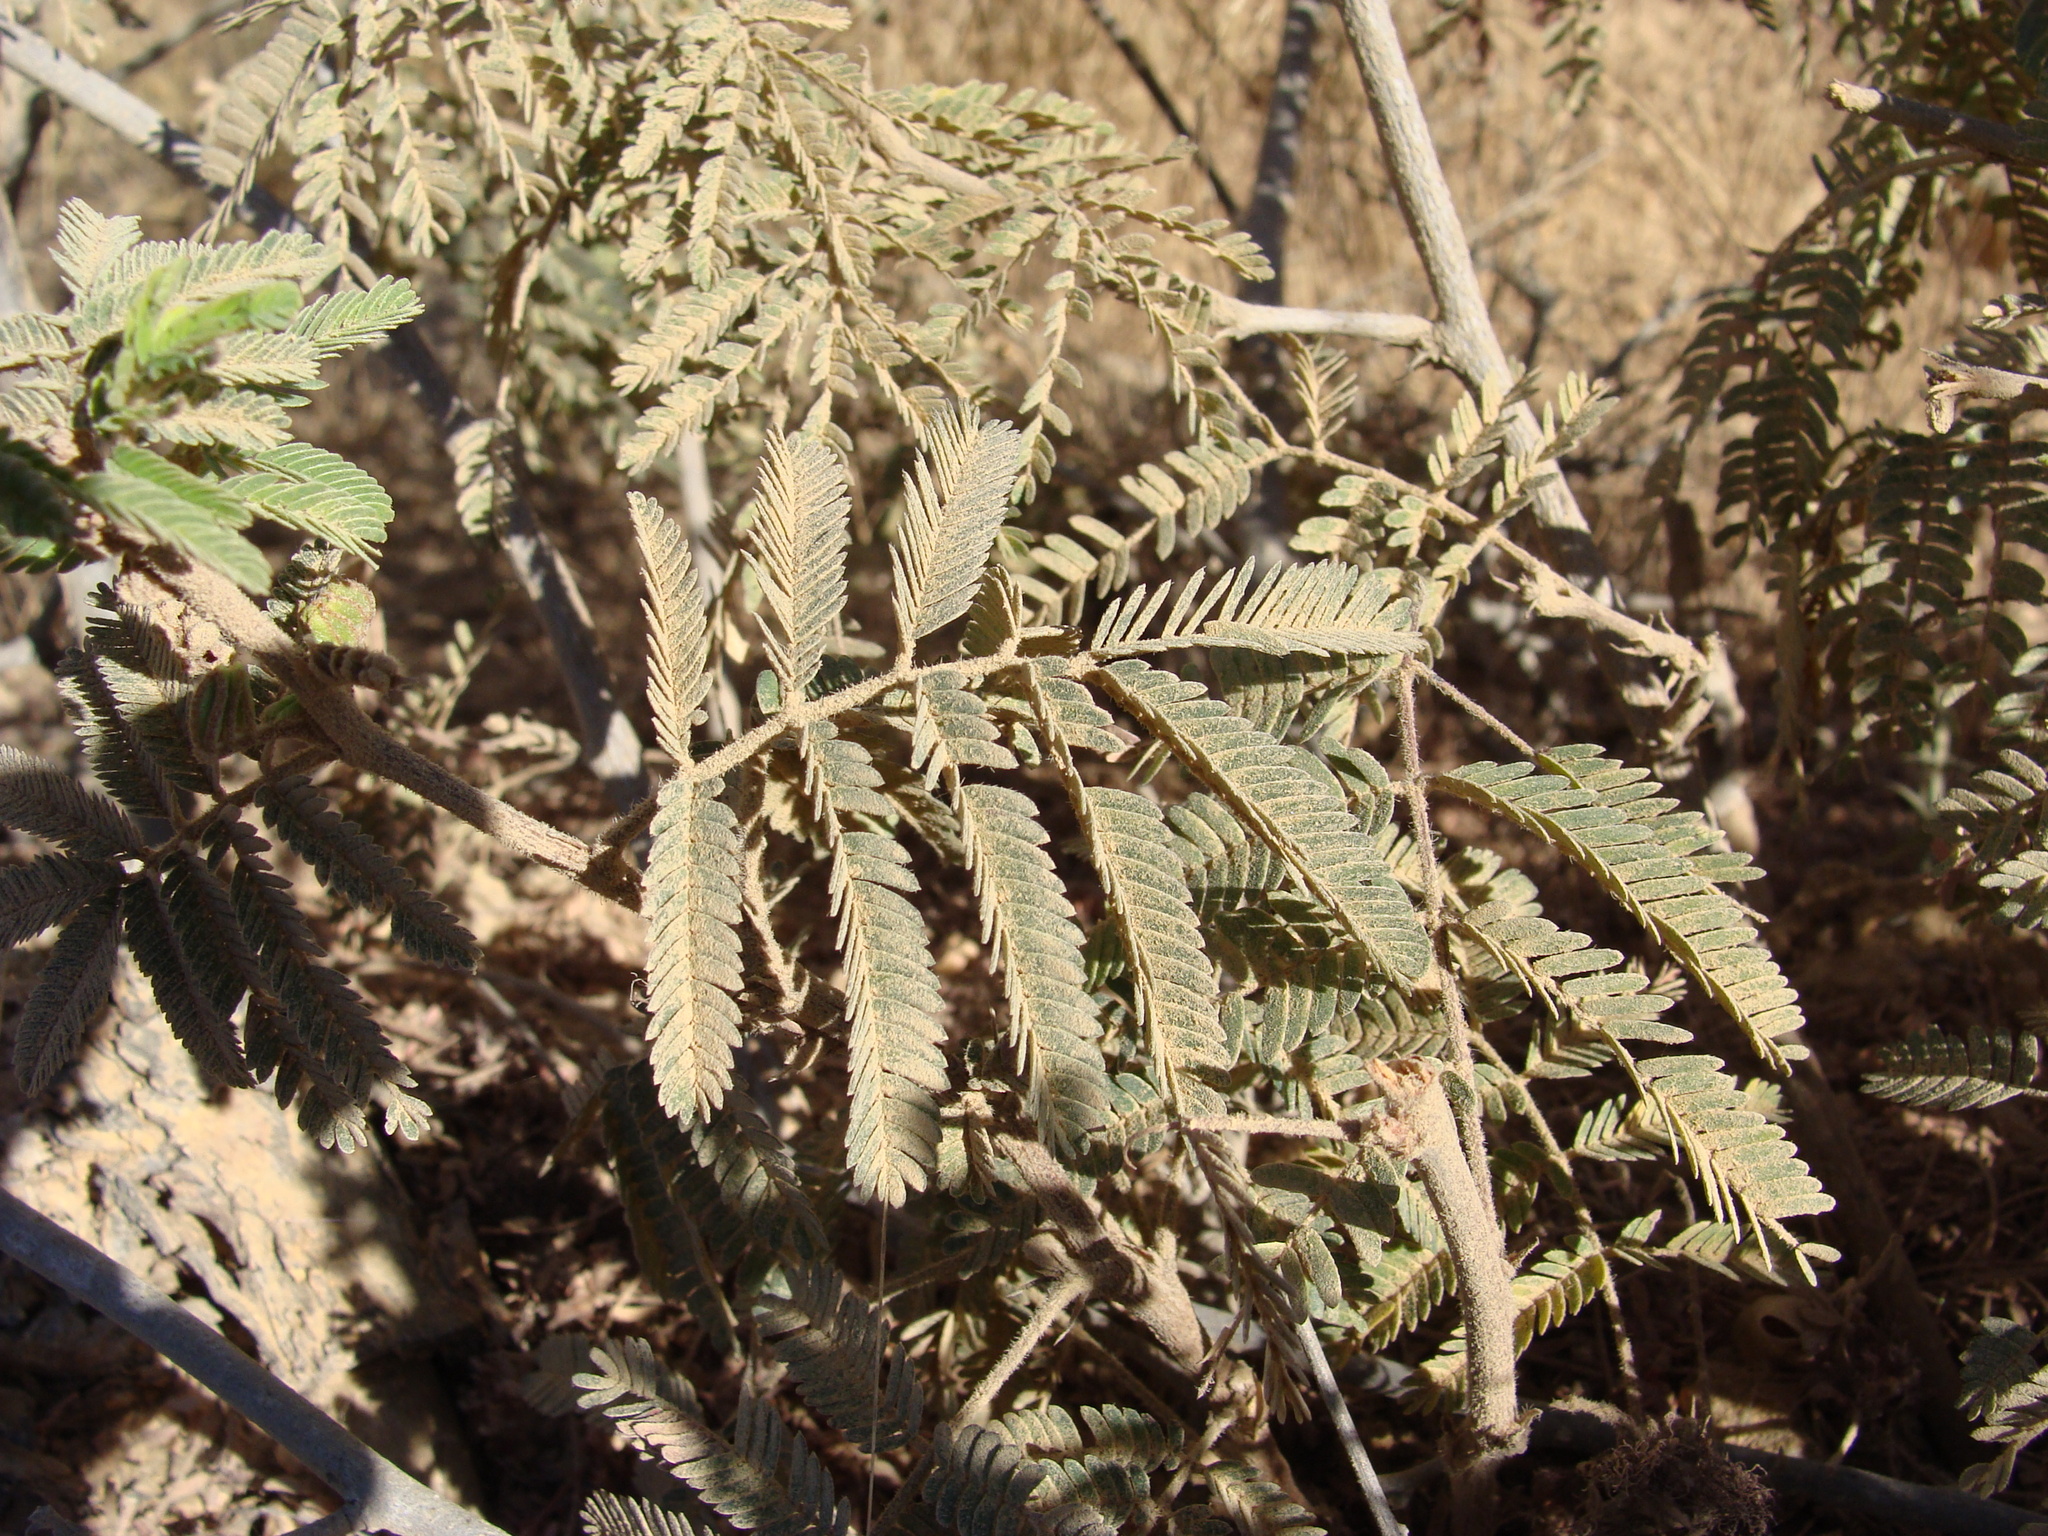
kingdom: Plantae
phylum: Tracheophyta
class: Magnoliopsida
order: Fabales
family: Fabaceae
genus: Calliandra
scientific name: Calliandra californica
